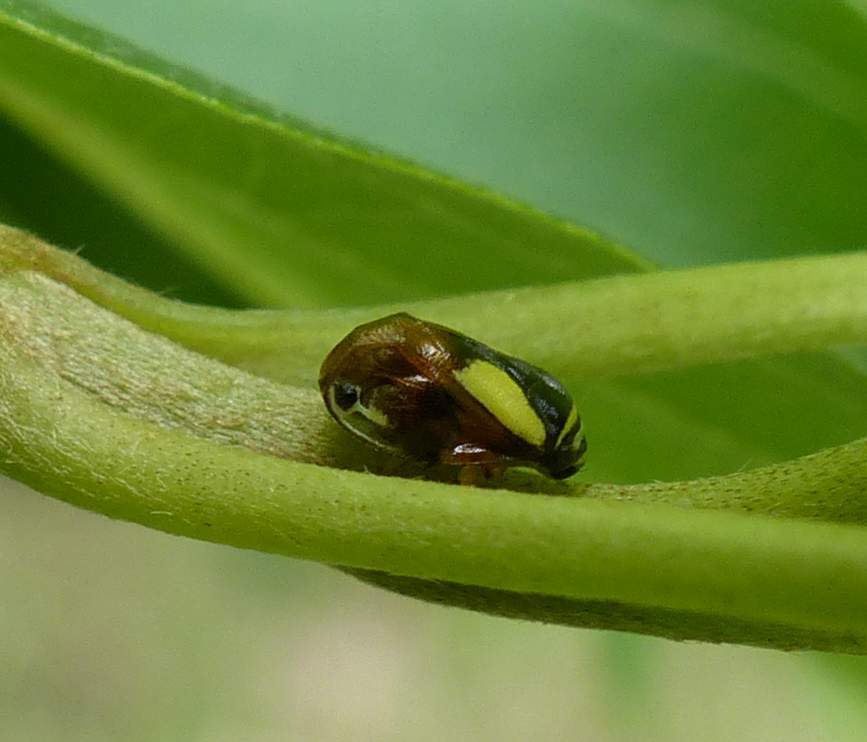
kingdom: Animalia
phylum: Arthropoda
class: Insecta
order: Hemiptera
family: Clastopteridae
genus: Clastoptera
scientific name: Clastoptera proteus
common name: Dogwood spittlebug
